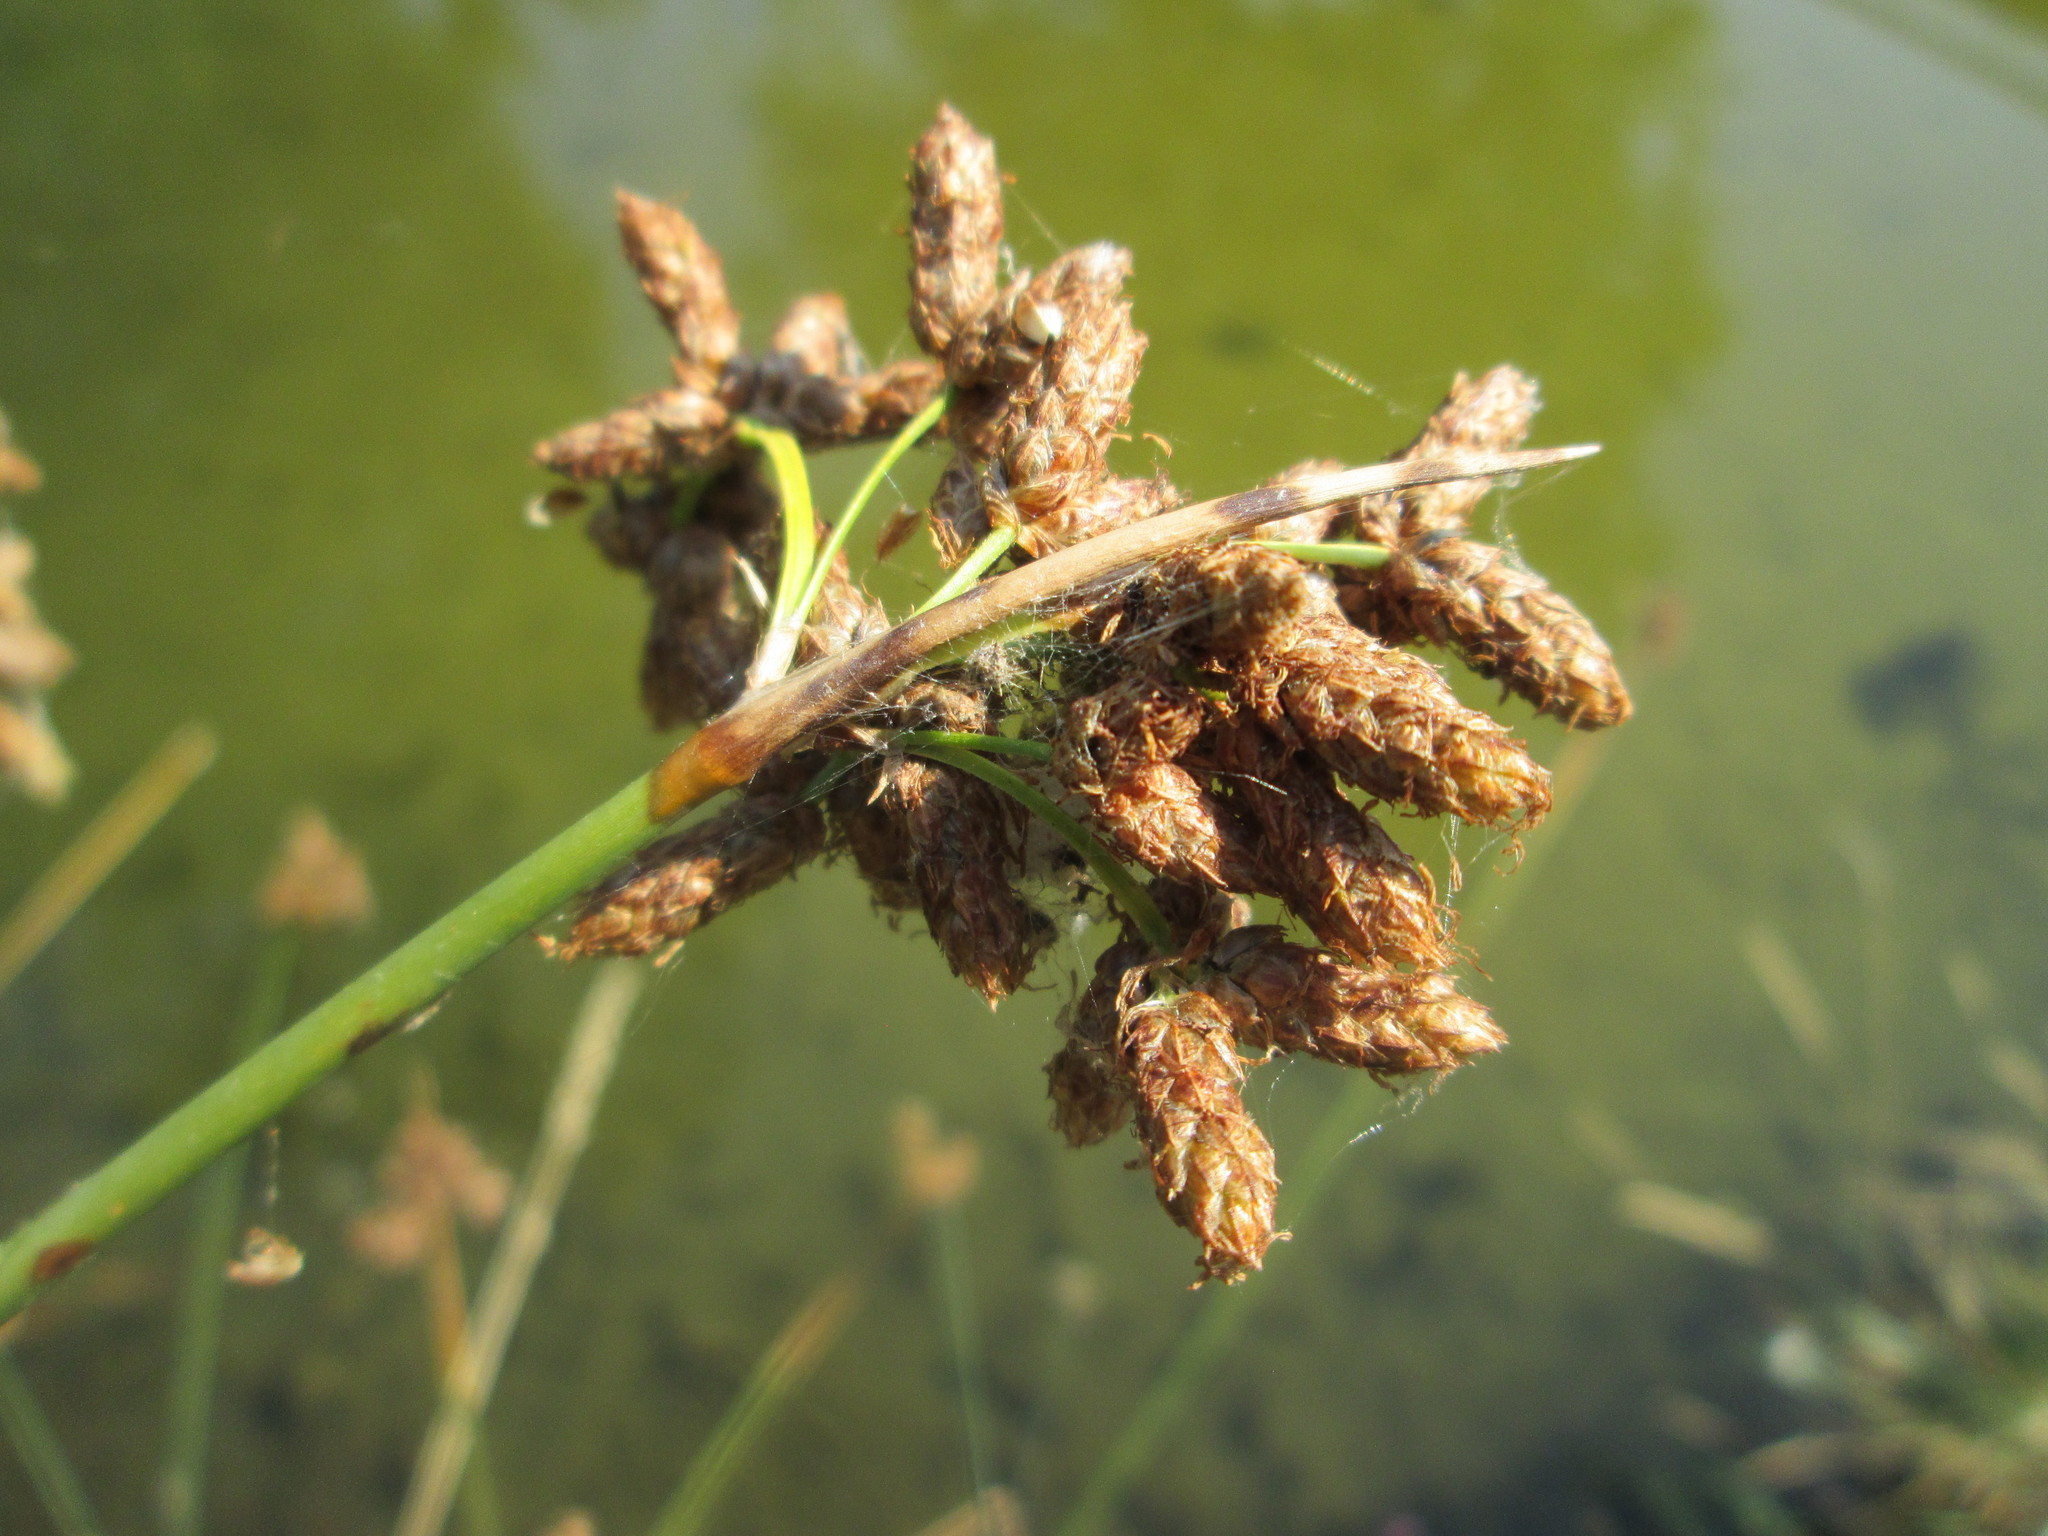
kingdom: Plantae
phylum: Tracheophyta
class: Liliopsida
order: Poales
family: Cyperaceae
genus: Schoenoplectus
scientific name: Schoenoplectus lacustris
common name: Common club-rush
